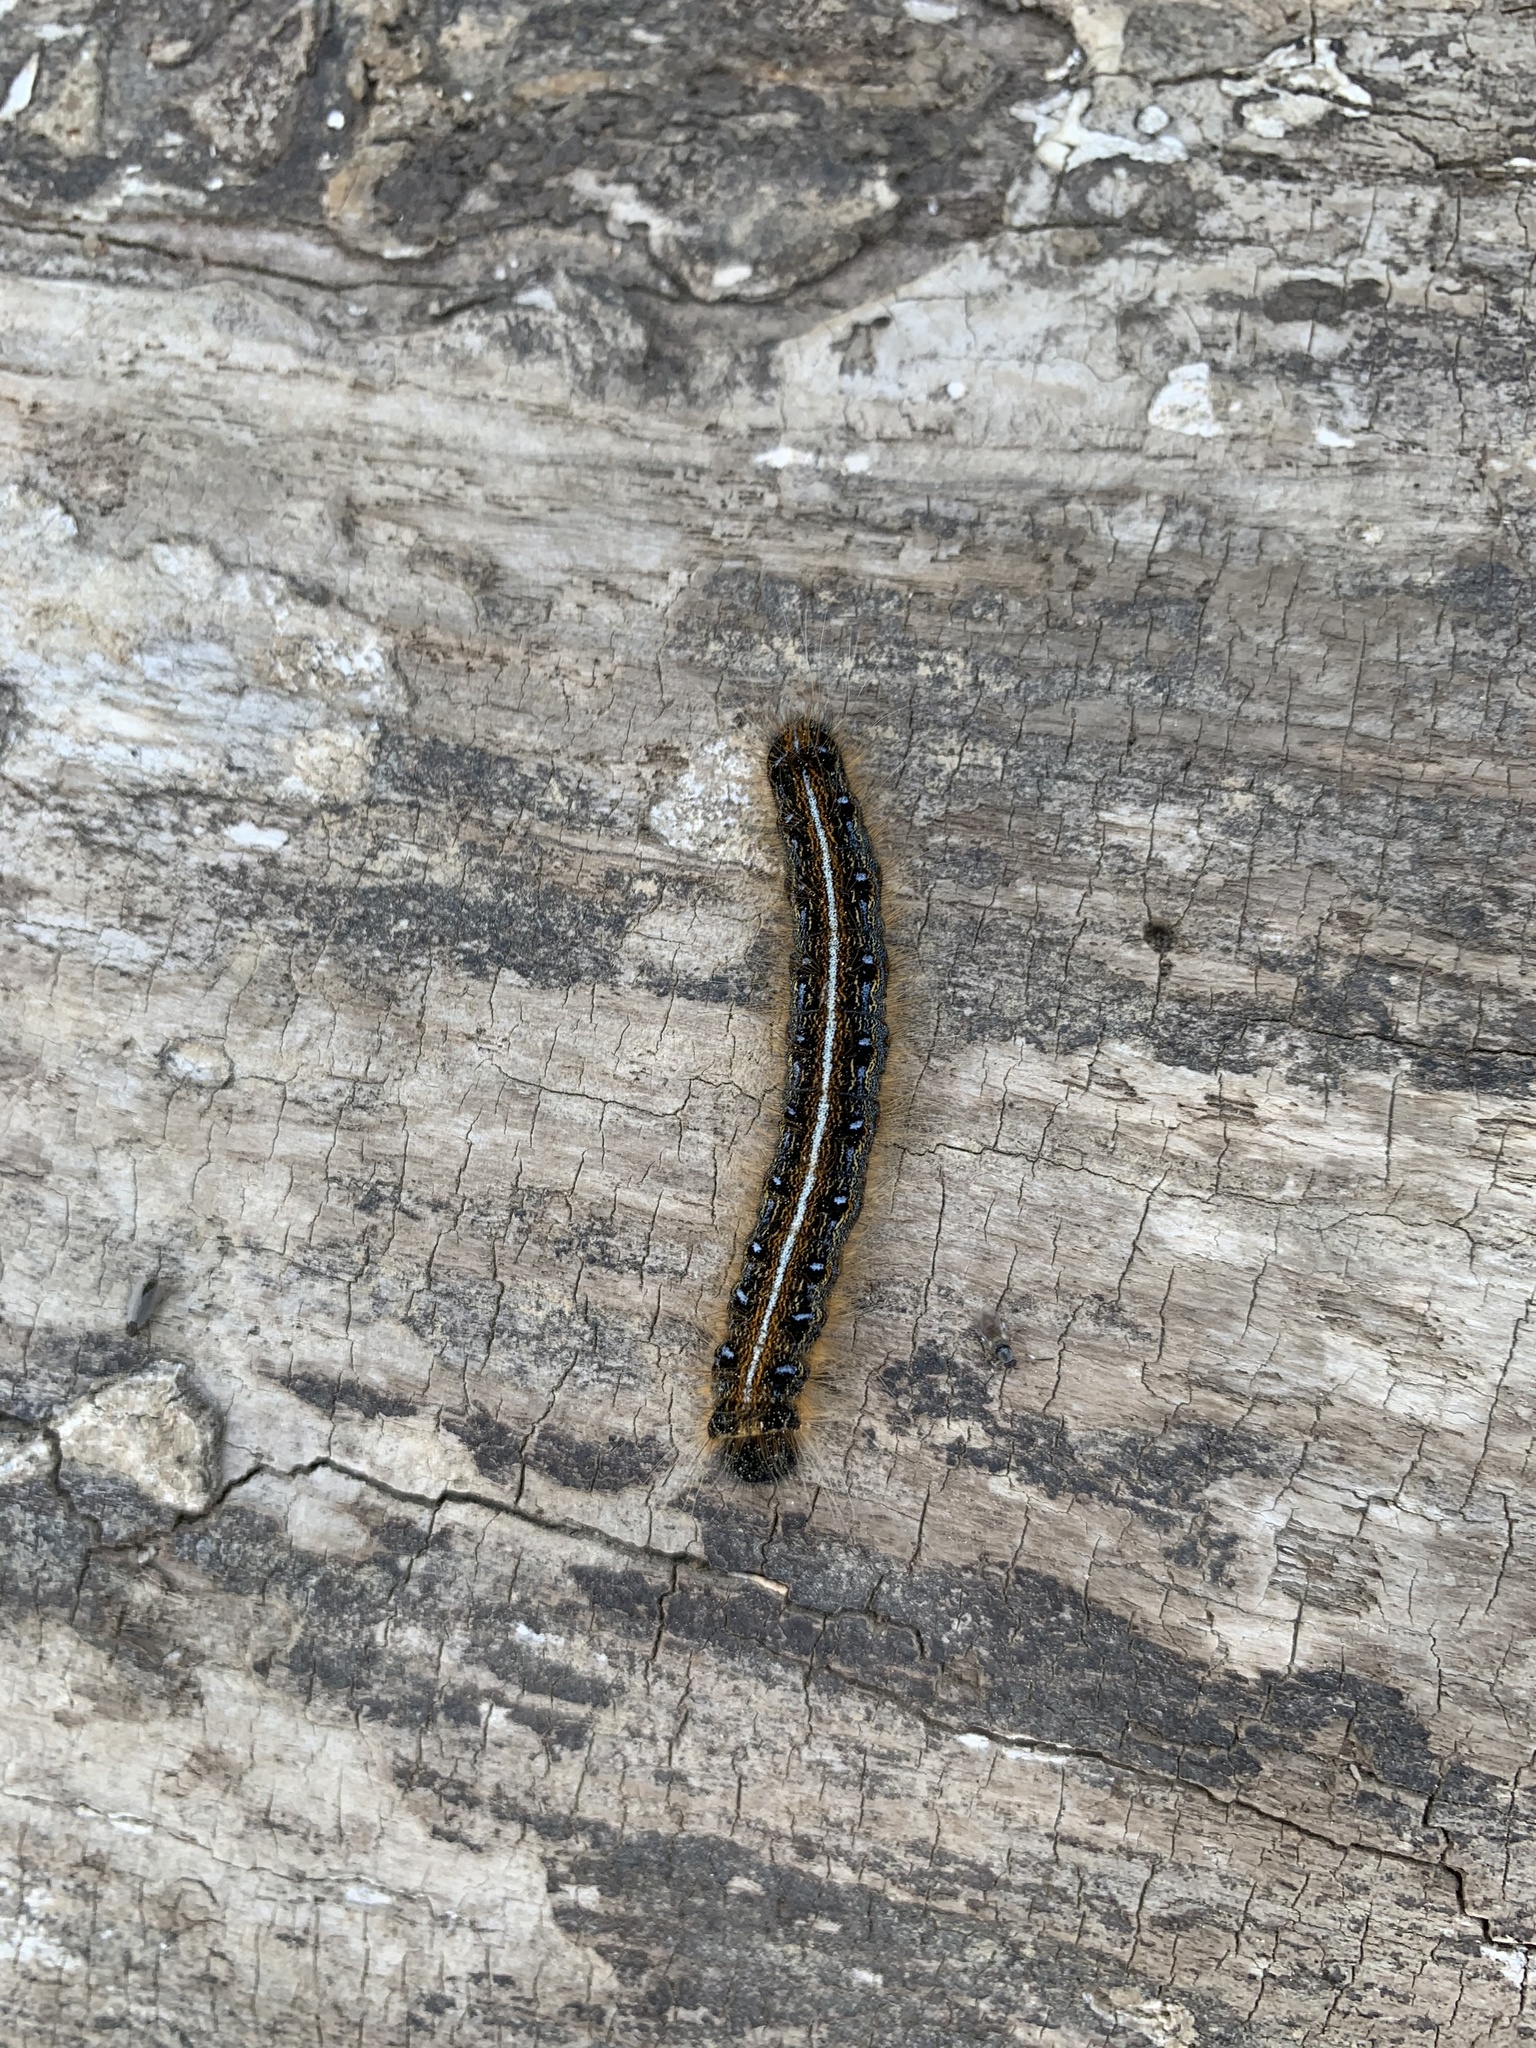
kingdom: Animalia
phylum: Arthropoda
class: Insecta
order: Lepidoptera
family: Lasiocampidae
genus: Malacosoma
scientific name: Malacosoma americana
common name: Eastern tent caterpillar moth
